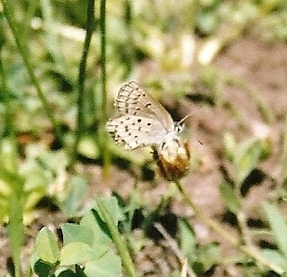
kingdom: Animalia
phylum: Arthropoda
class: Insecta
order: Lepidoptera
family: Lycaenidae
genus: Icaricia
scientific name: Icaricia saepiolus
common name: Greenish blue
